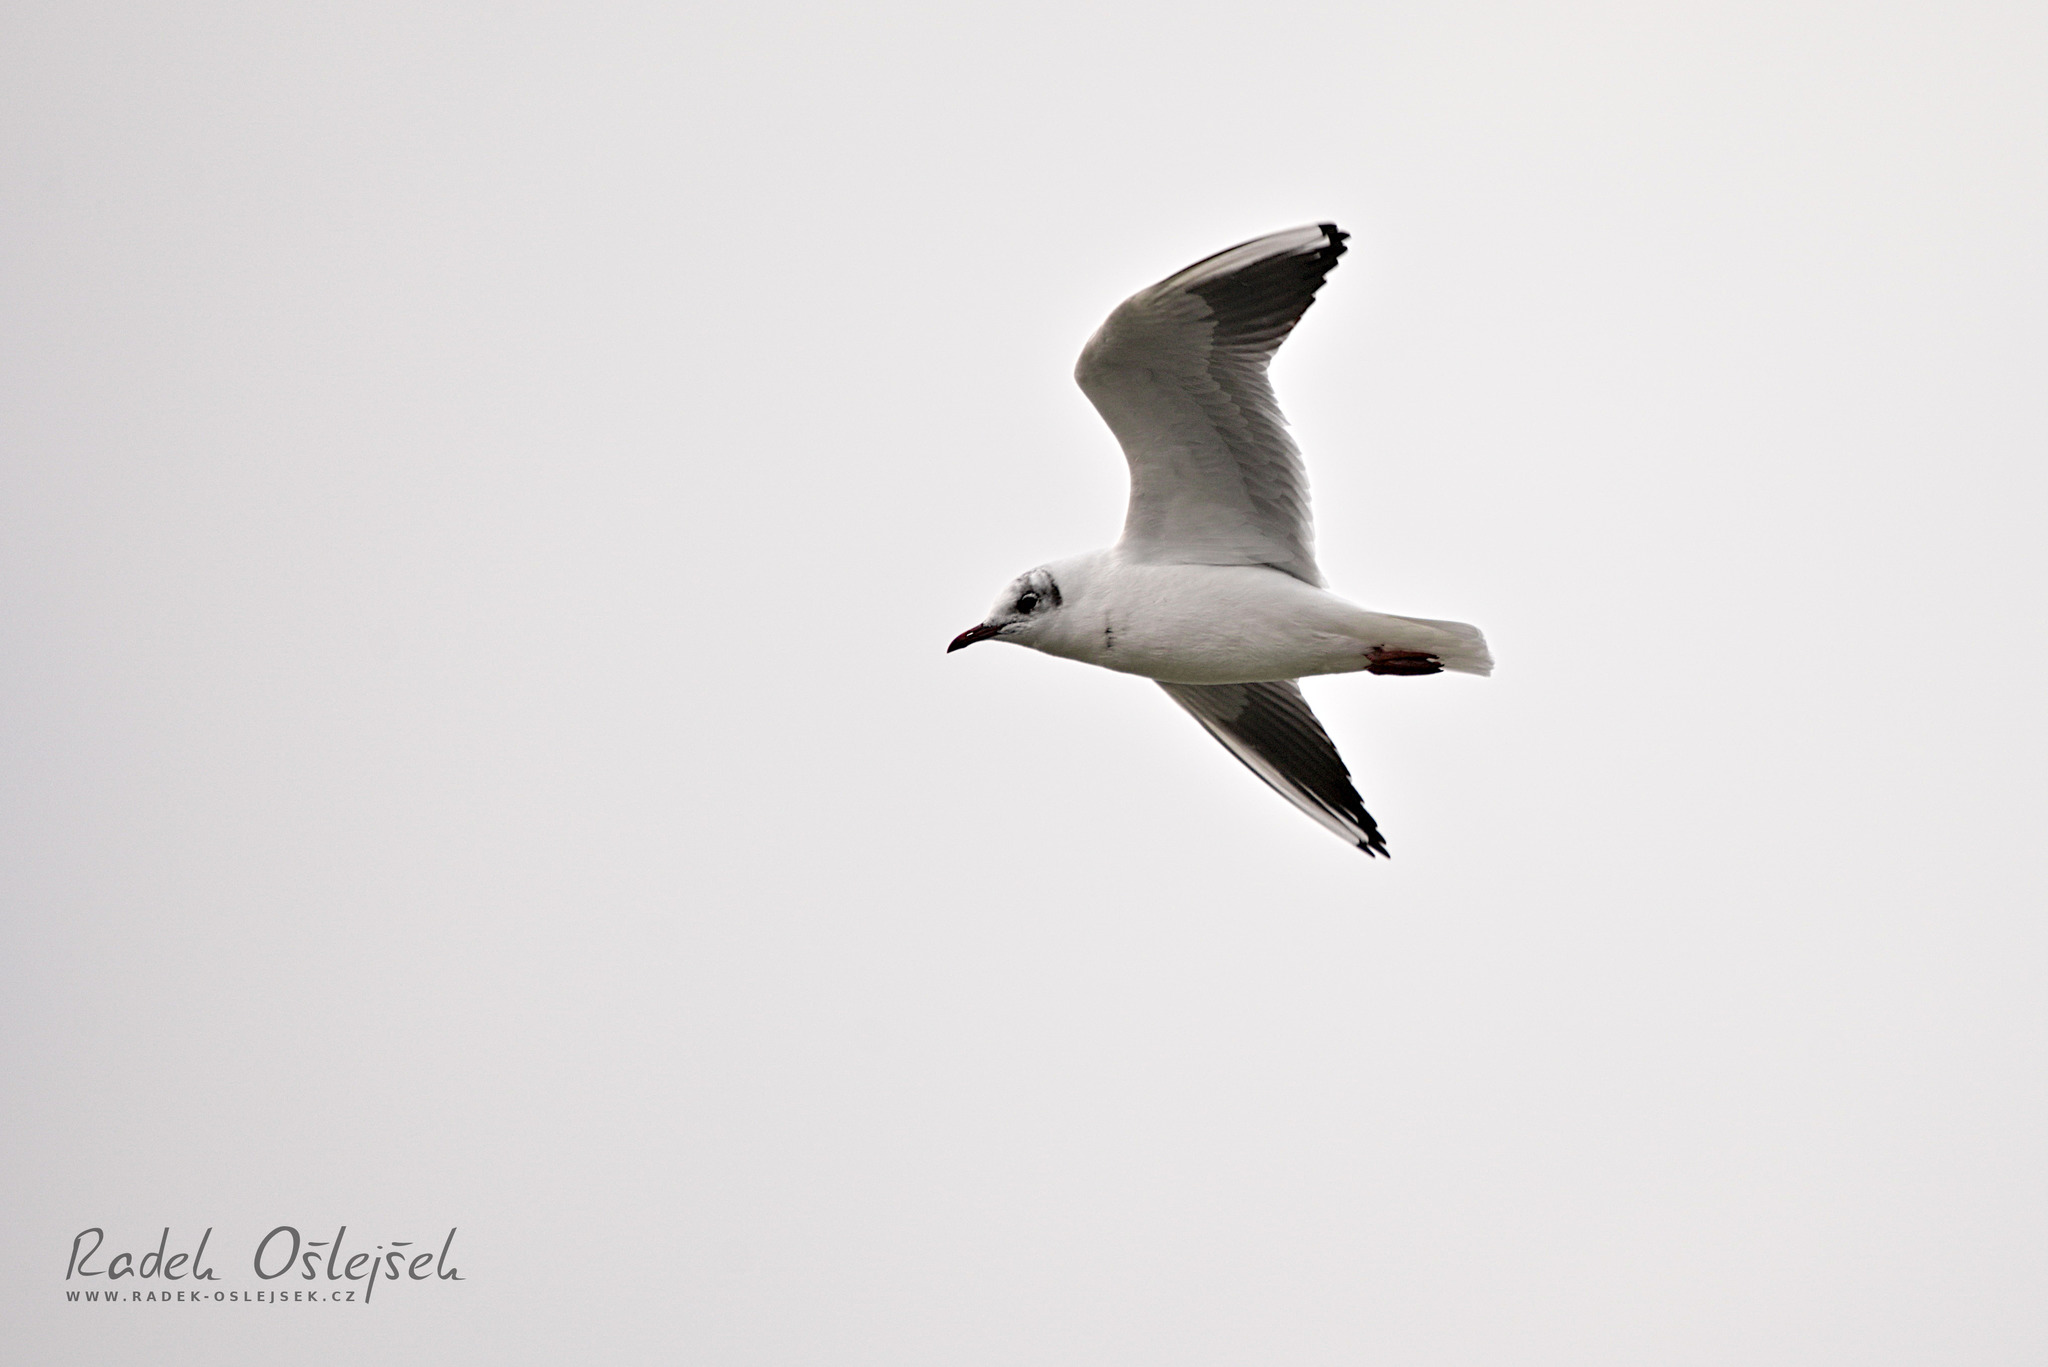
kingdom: Animalia
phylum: Chordata
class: Aves
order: Charadriiformes
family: Laridae
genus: Chroicocephalus
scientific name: Chroicocephalus ridibundus
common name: Black-headed gull
